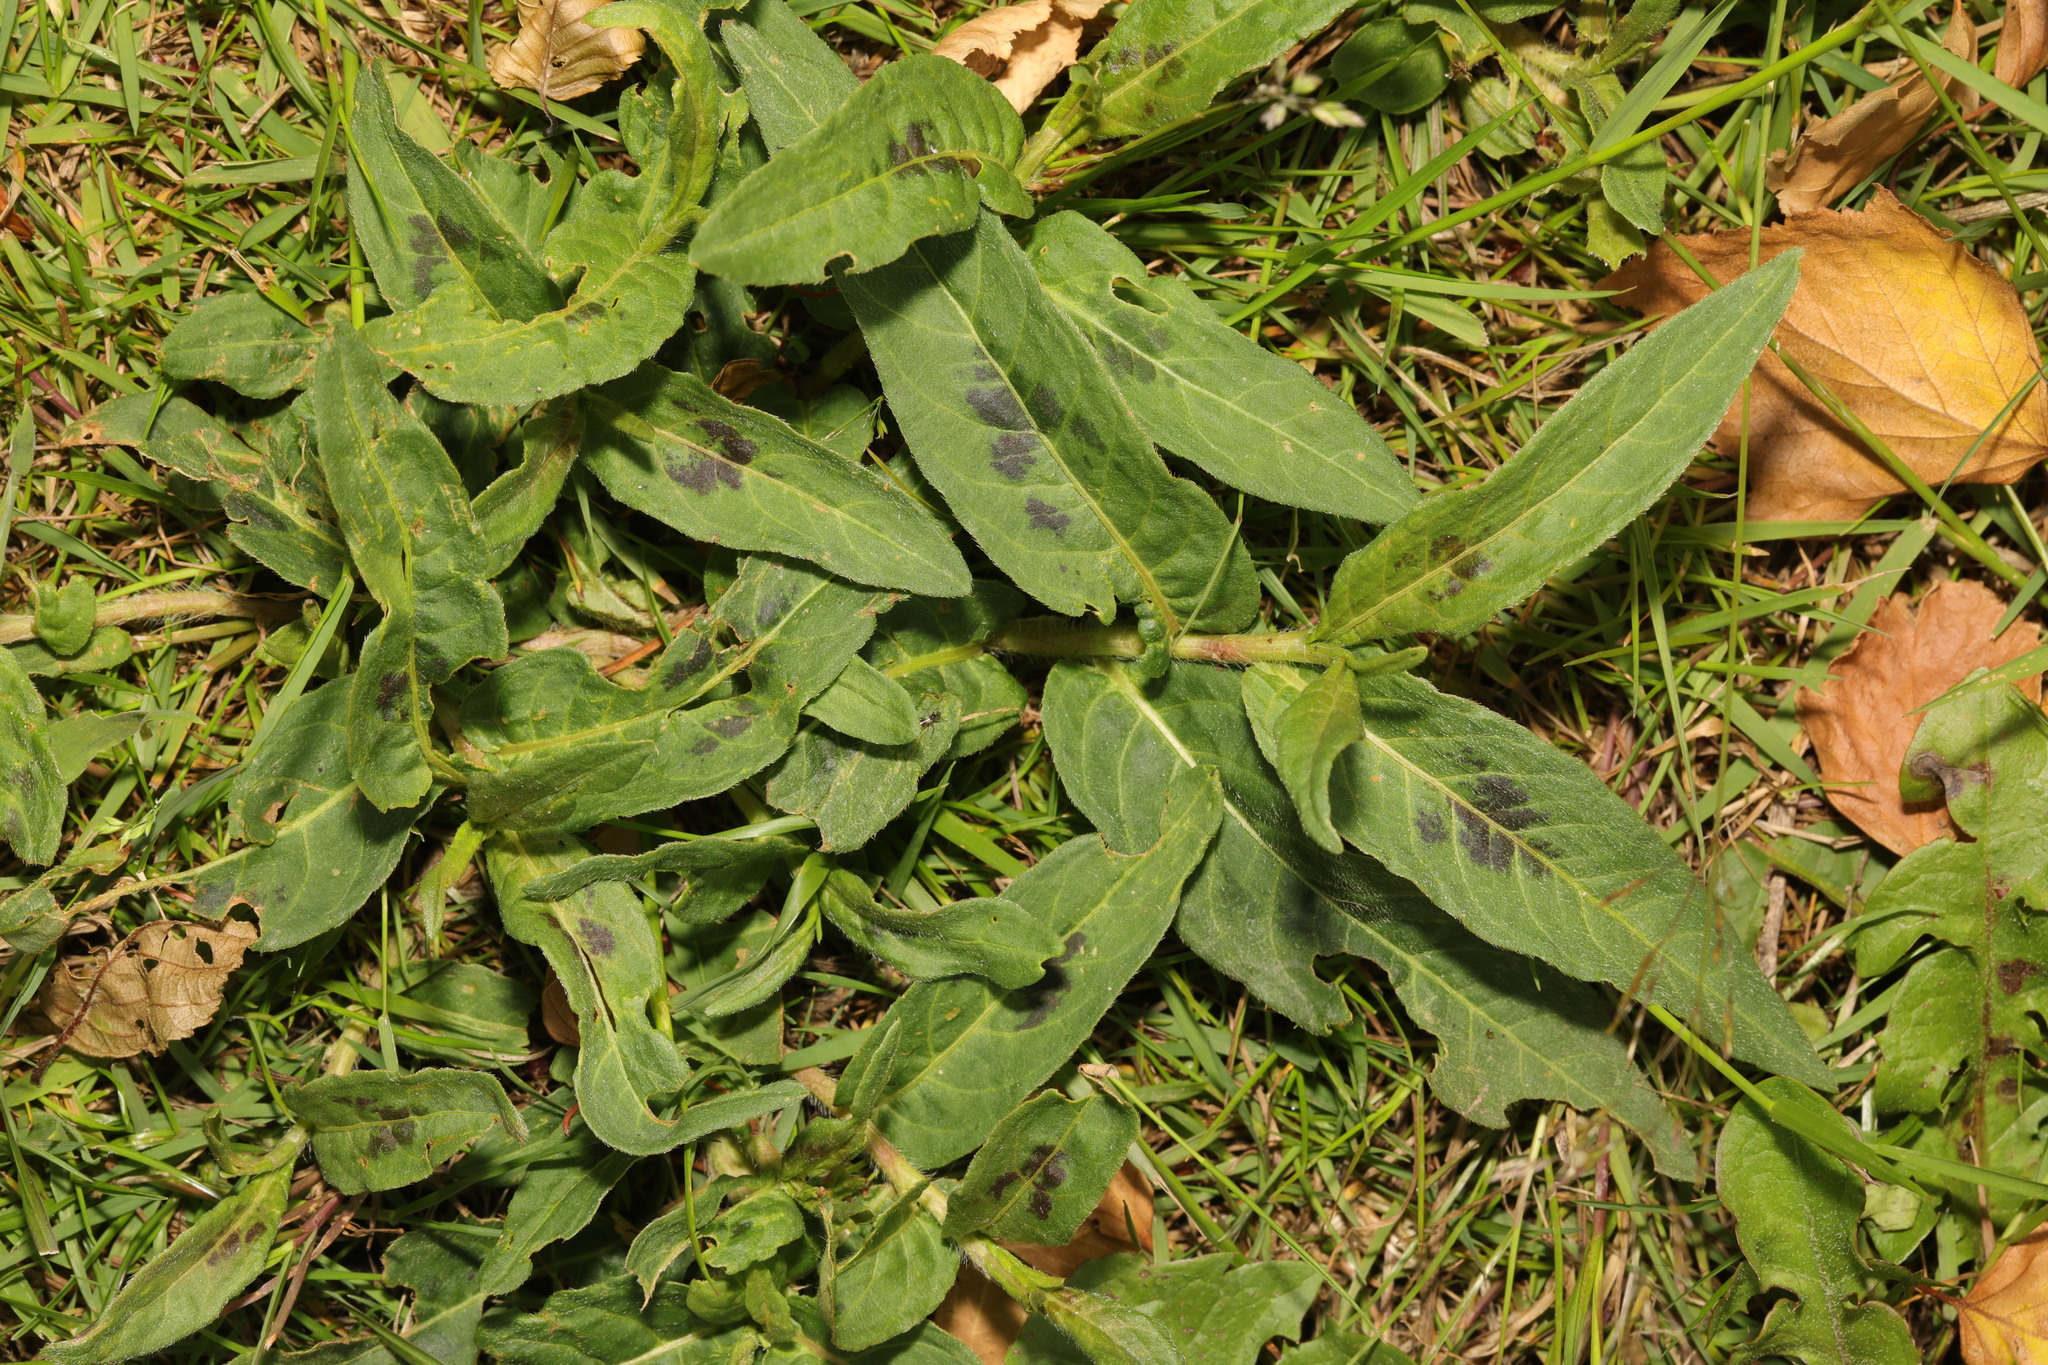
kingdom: Plantae
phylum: Tracheophyta
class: Magnoliopsida
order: Caryophyllales
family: Polygonaceae
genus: Persicaria
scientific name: Persicaria amphibia
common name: Amphibious bistort
